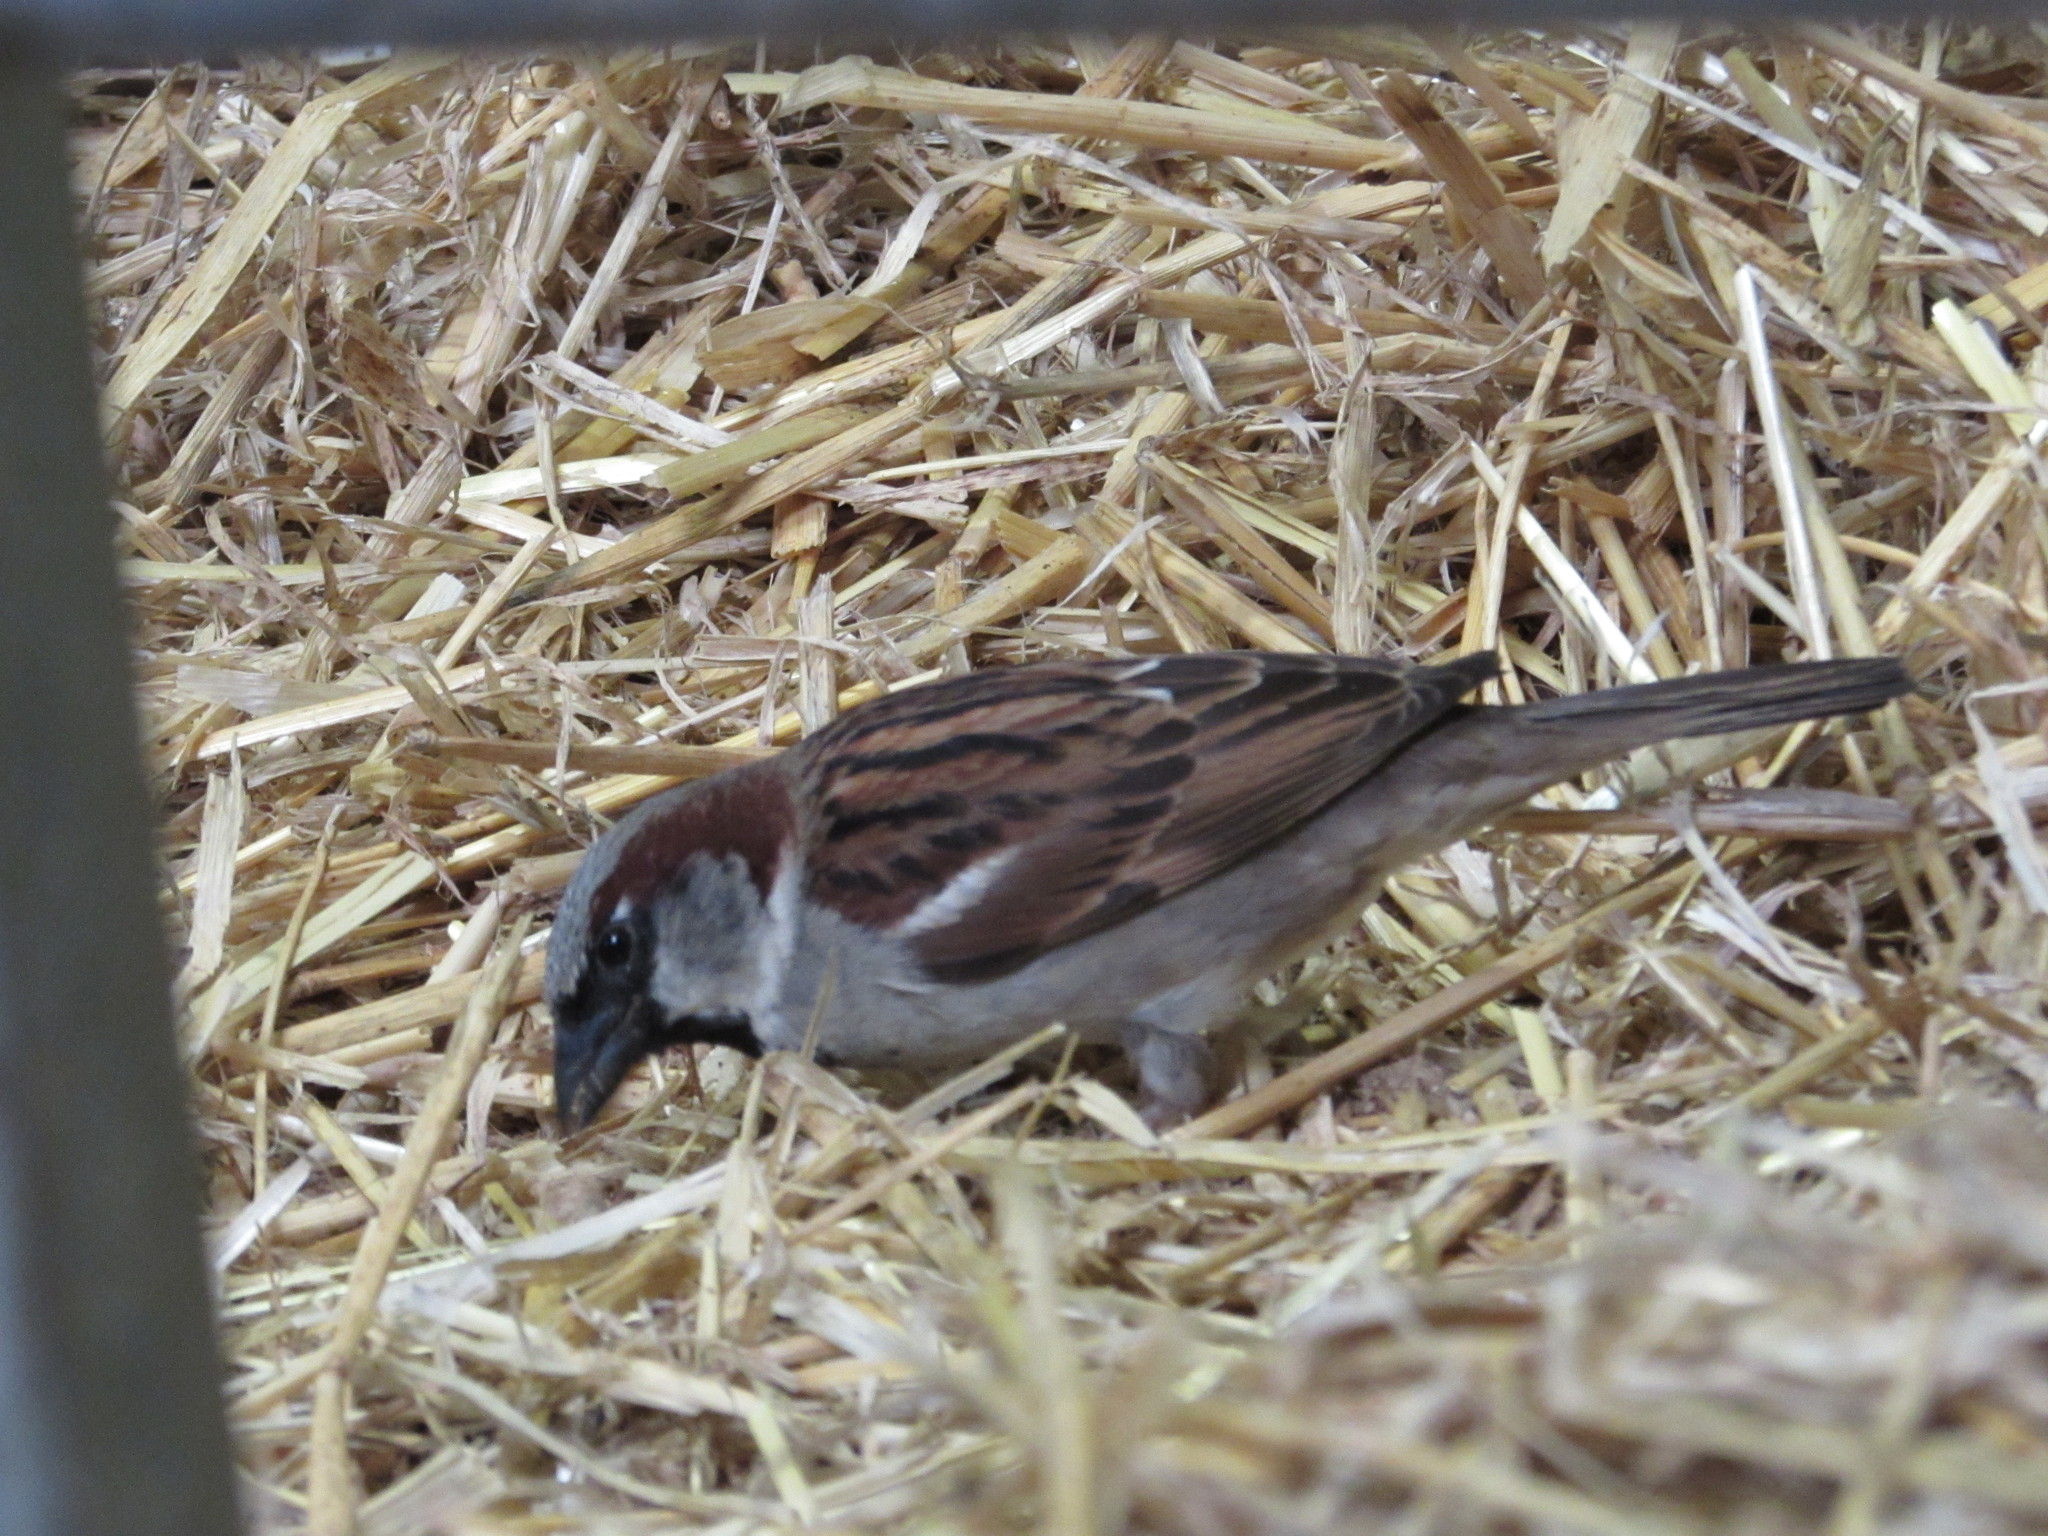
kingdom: Animalia
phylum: Chordata
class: Aves
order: Passeriformes
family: Passeridae
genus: Passer
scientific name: Passer domesticus
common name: House sparrow
